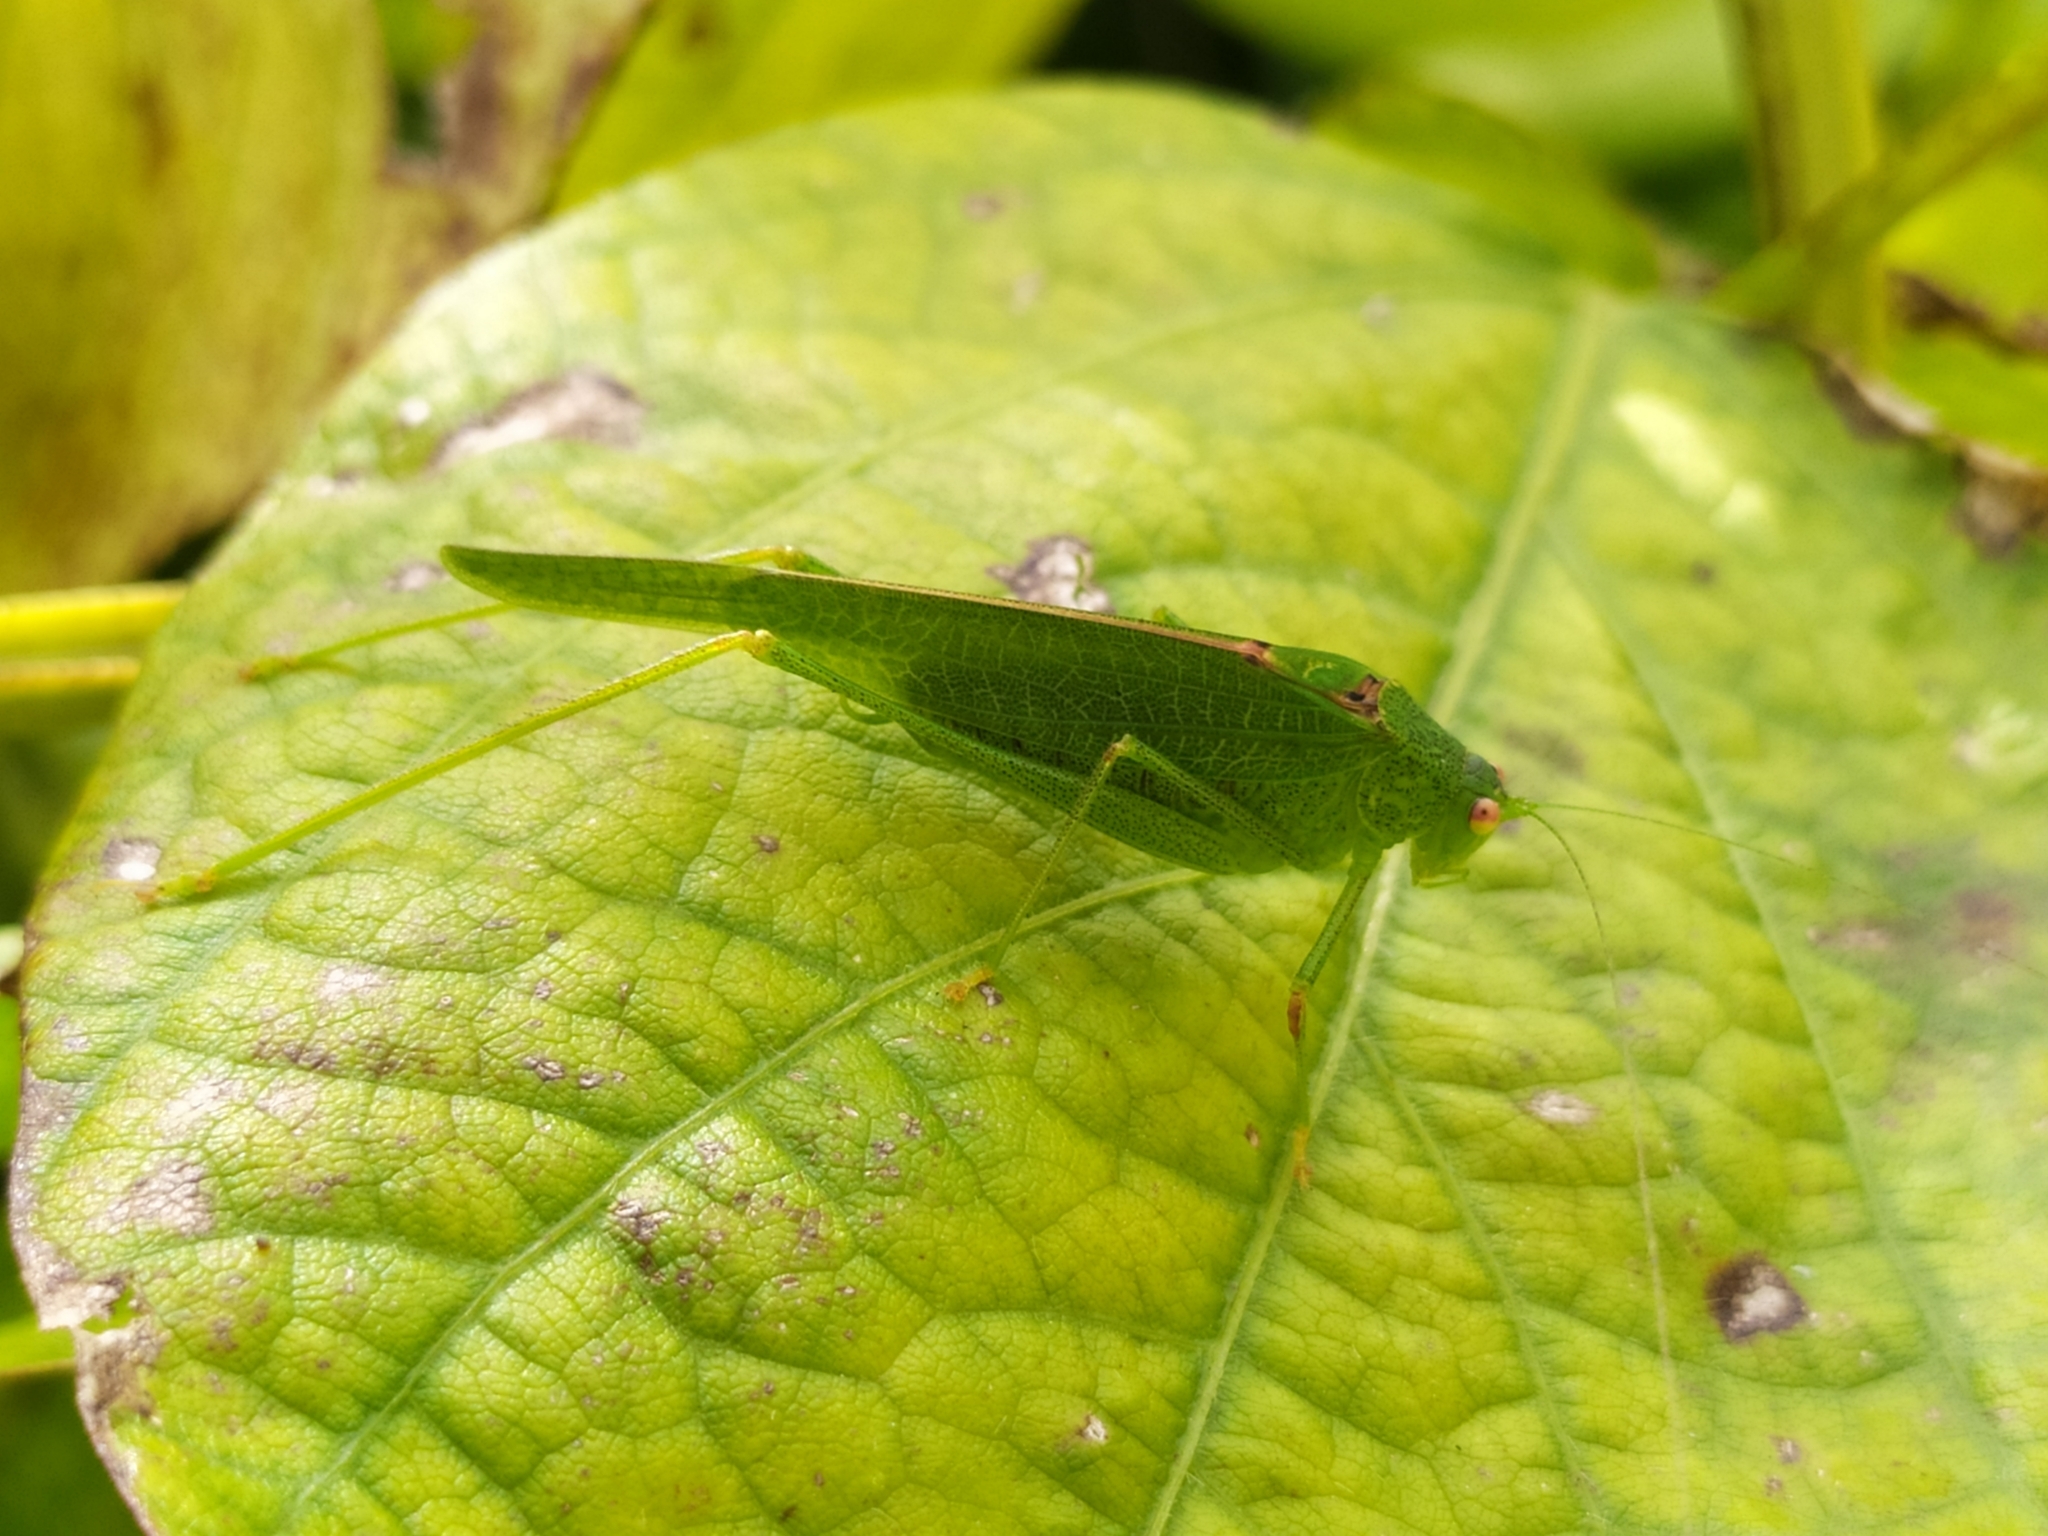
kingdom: Animalia
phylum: Arthropoda
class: Insecta
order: Orthoptera
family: Tettigoniidae
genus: Phaneroptera
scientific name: Phaneroptera nana
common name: Southern sickle bush-cricket
